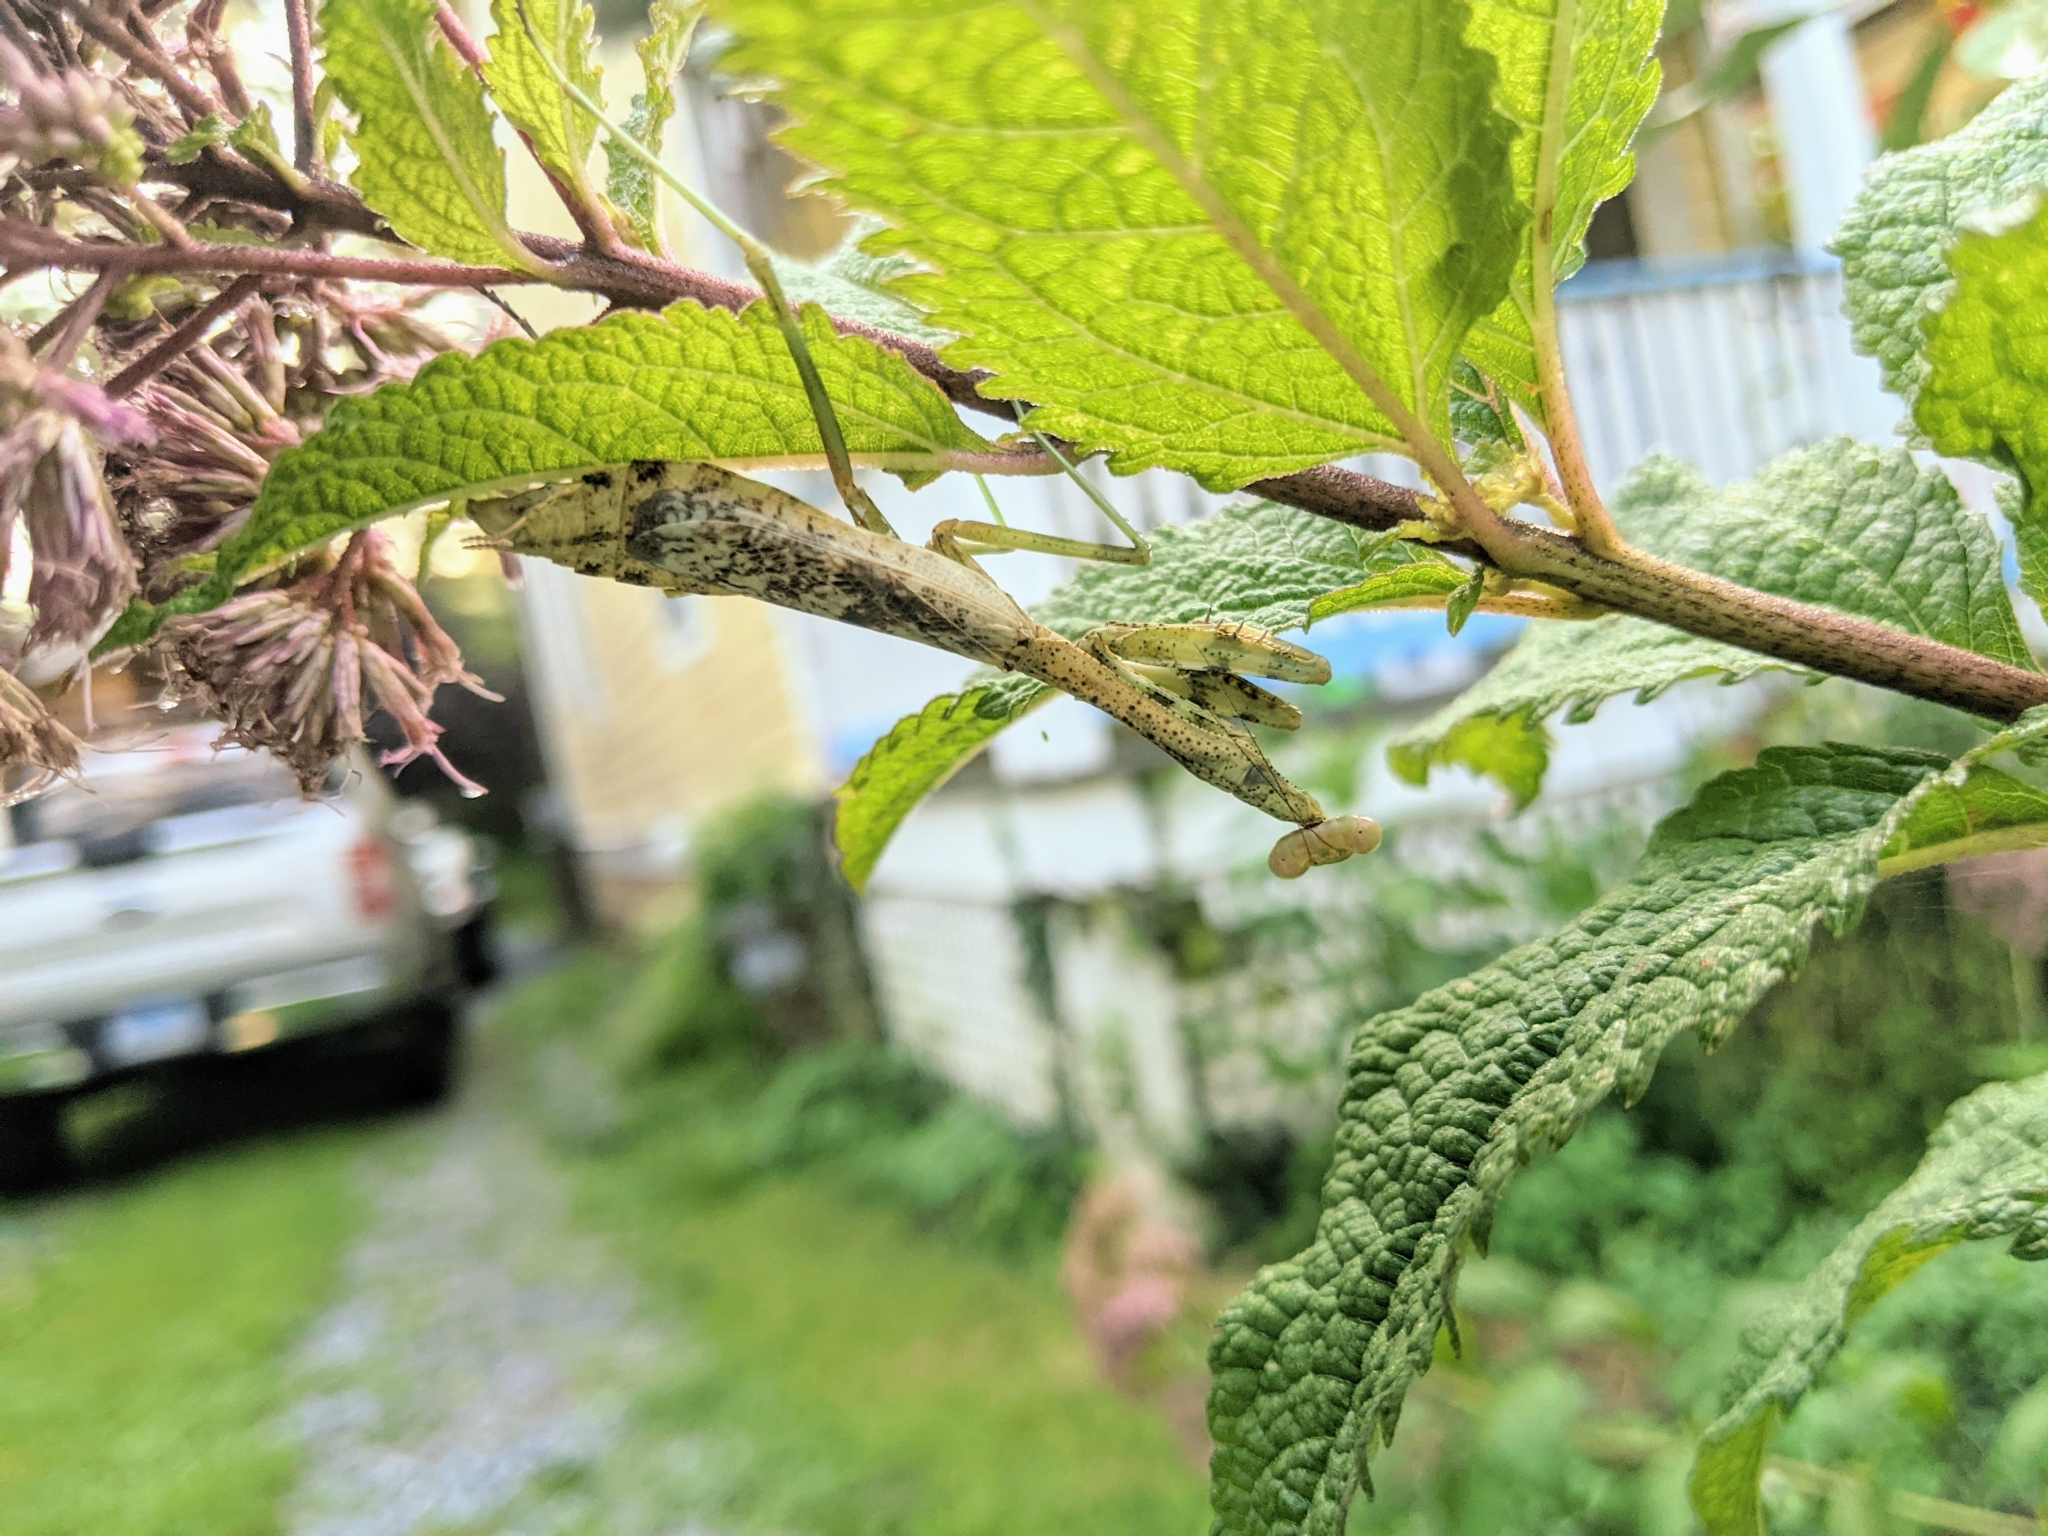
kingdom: Animalia
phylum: Arthropoda
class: Insecta
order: Mantodea
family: Mantidae
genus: Stagmomantis
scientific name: Stagmomantis carolina
